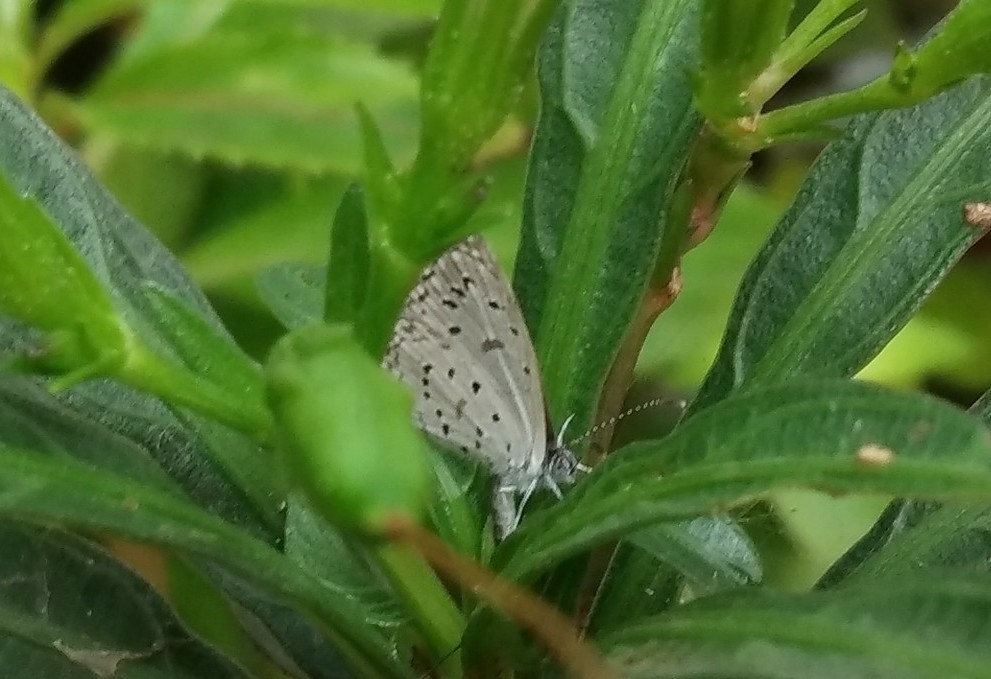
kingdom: Animalia
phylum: Arthropoda
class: Insecta
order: Lepidoptera
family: Lycaenidae
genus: Zizula
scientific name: Zizula hylax
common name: Gaika blue
